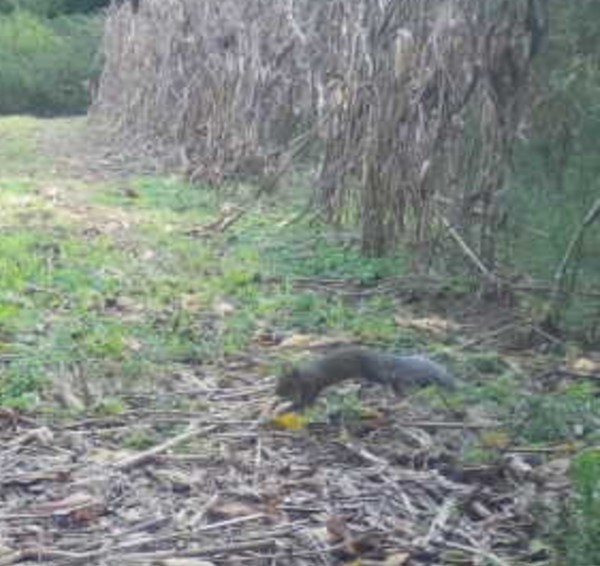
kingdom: Animalia
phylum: Chordata
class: Mammalia
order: Rodentia
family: Sciuridae
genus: Sciurus
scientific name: Sciurus carolinensis
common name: Eastern gray squirrel
